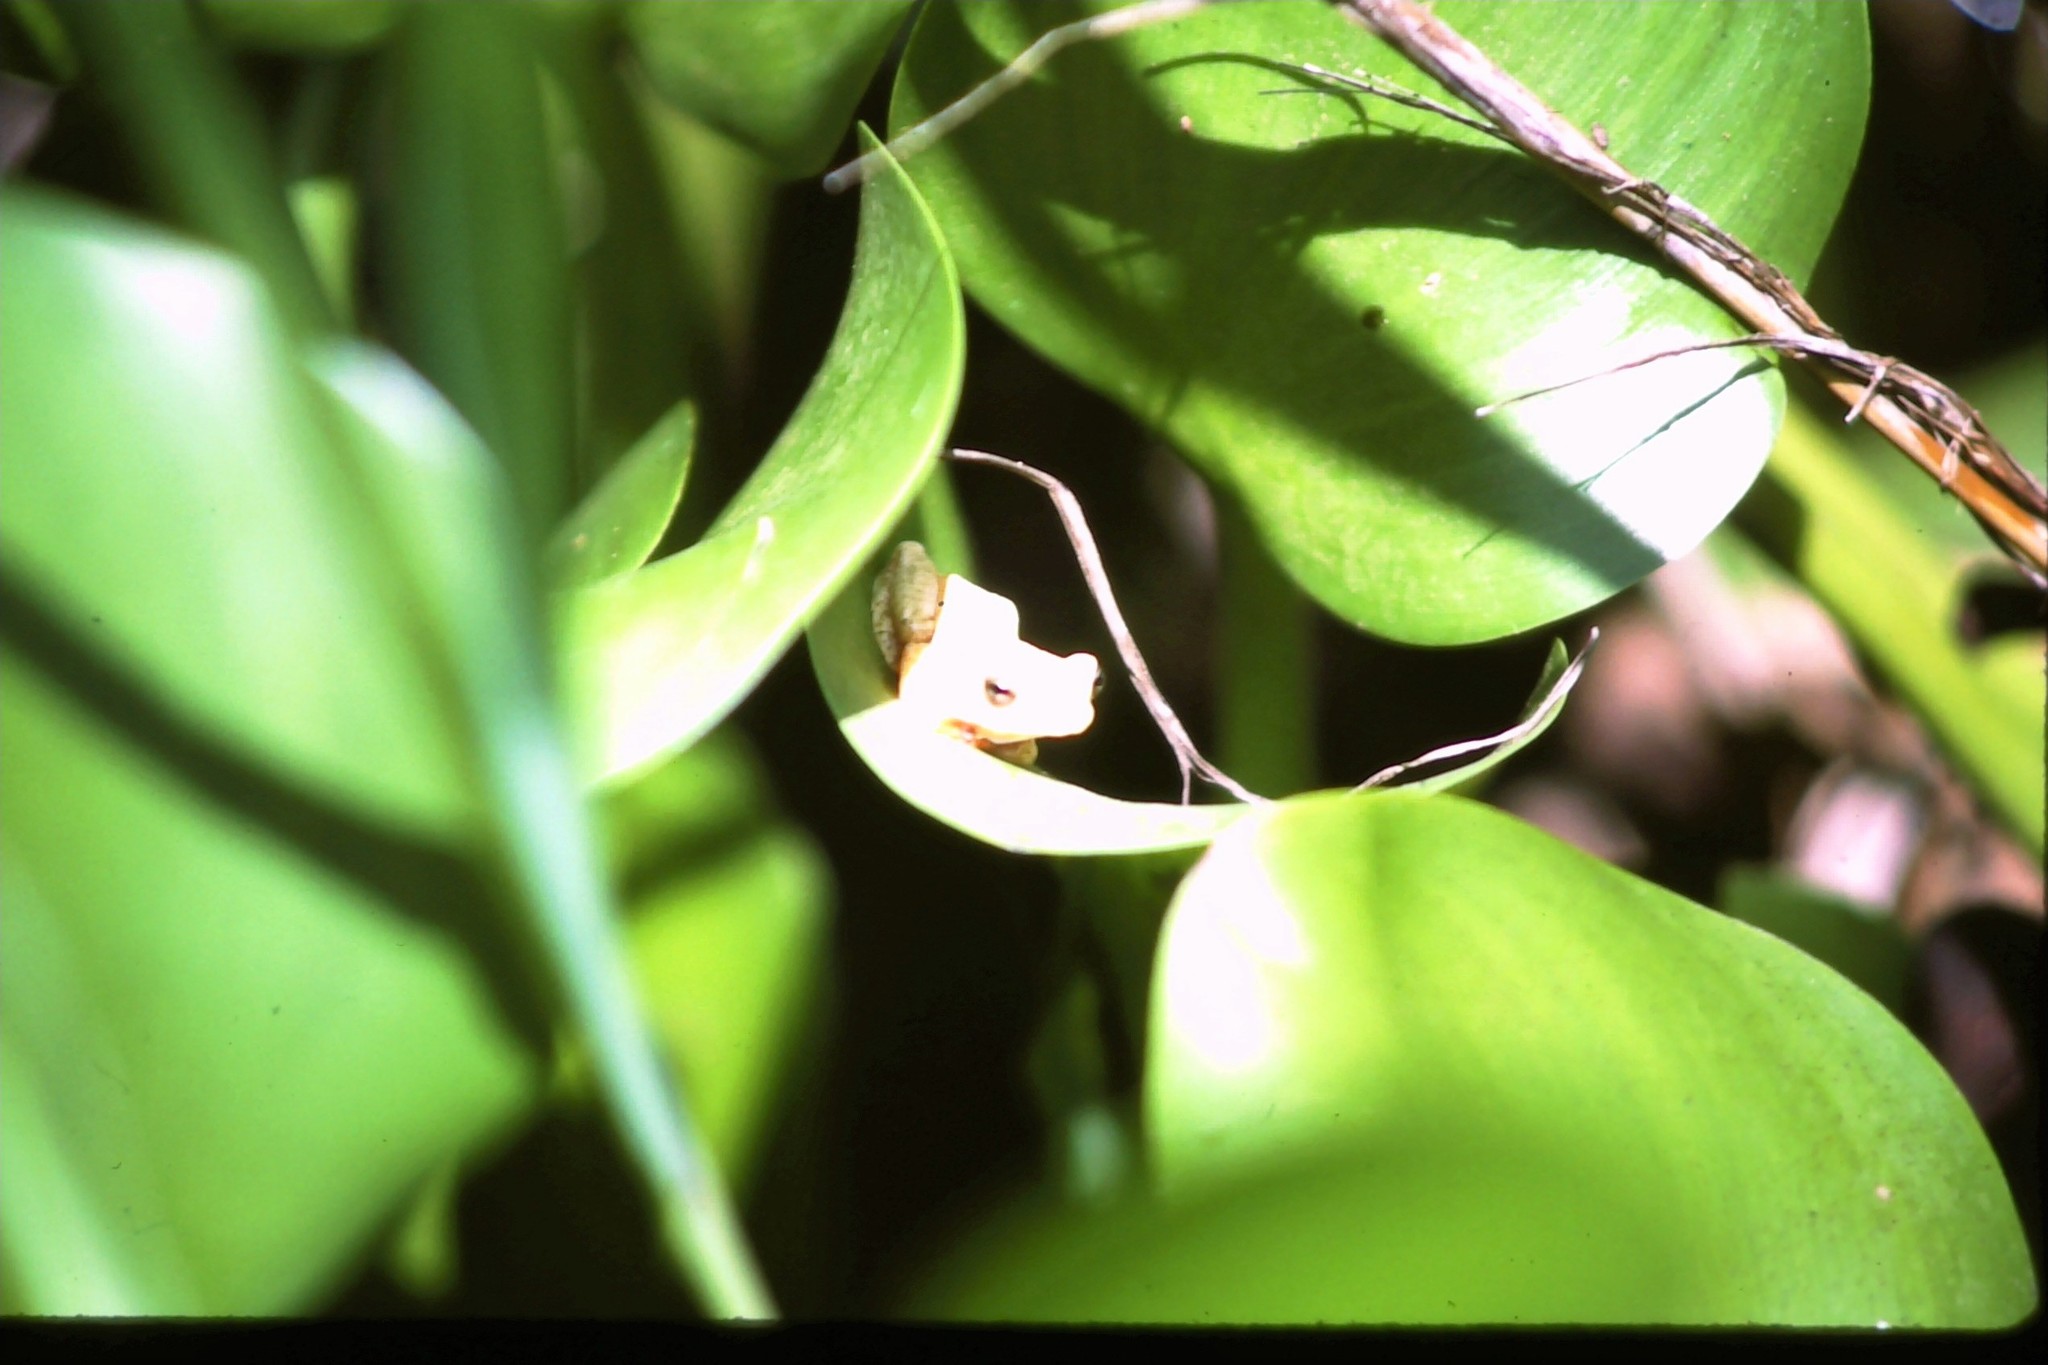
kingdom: Animalia
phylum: Chordata
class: Amphibia
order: Anura
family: Hyperoliidae
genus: Hyperolius
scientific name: Hyperolius viridiflavus
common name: Common reed frog
